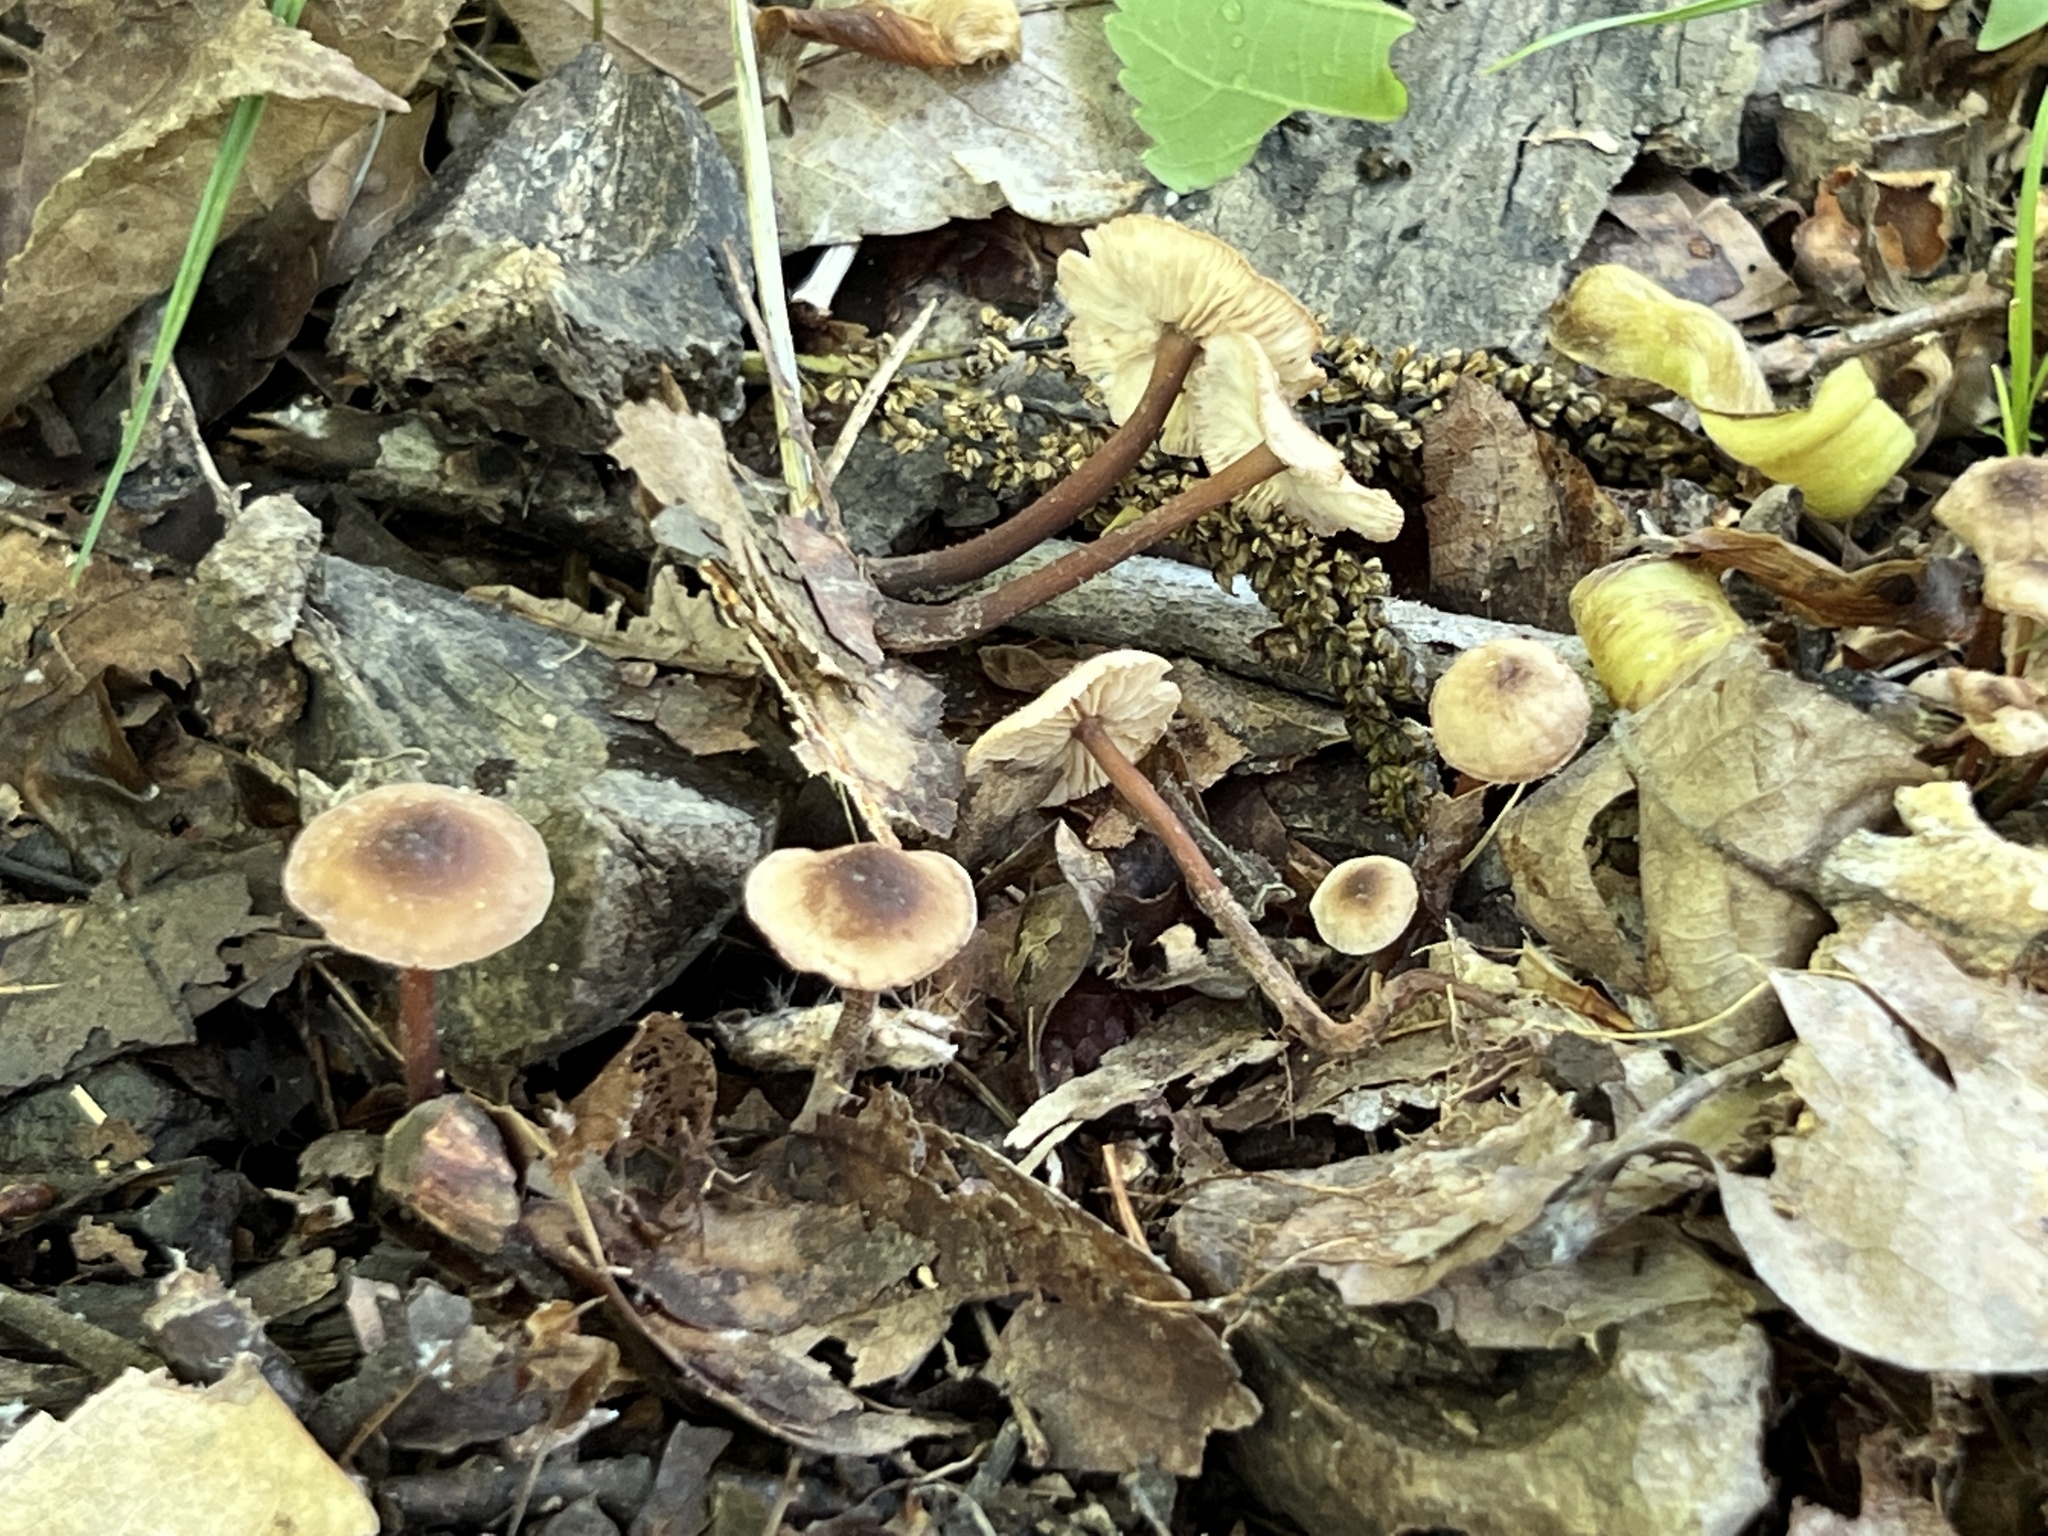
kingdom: Fungi
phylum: Basidiomycota
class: Agaricomycetes
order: Agaricales
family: Omphalotaceae
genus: Gymnopus
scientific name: Gymnopus semihirtipes
